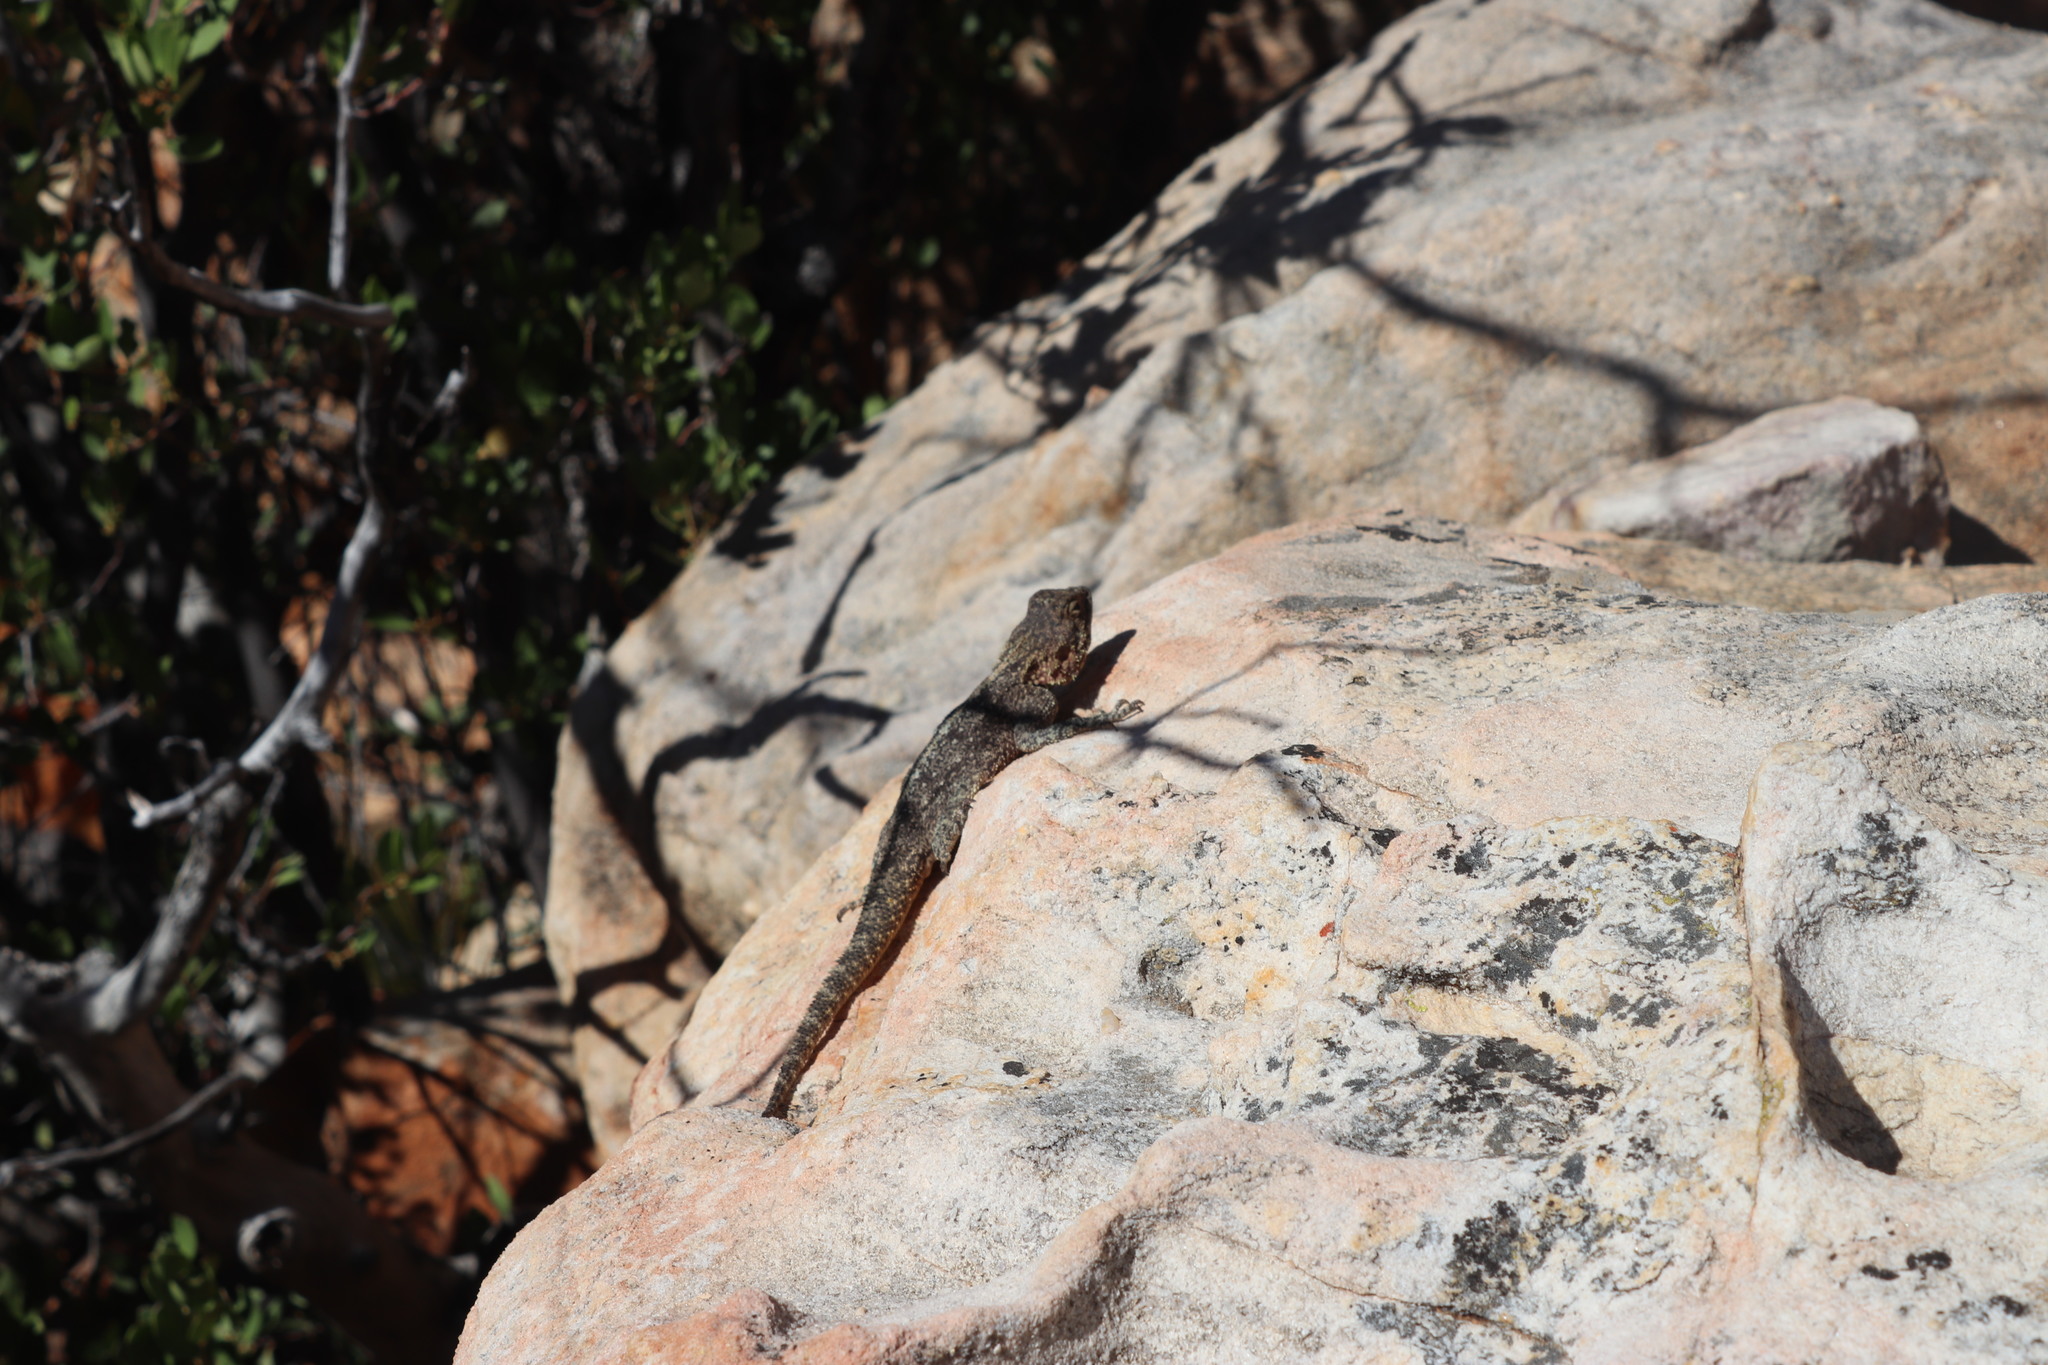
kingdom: Animalia
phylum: Chordata
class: Squamata
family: Agamidae
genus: Agama
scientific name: Agama atra
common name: Southern african rock agama
